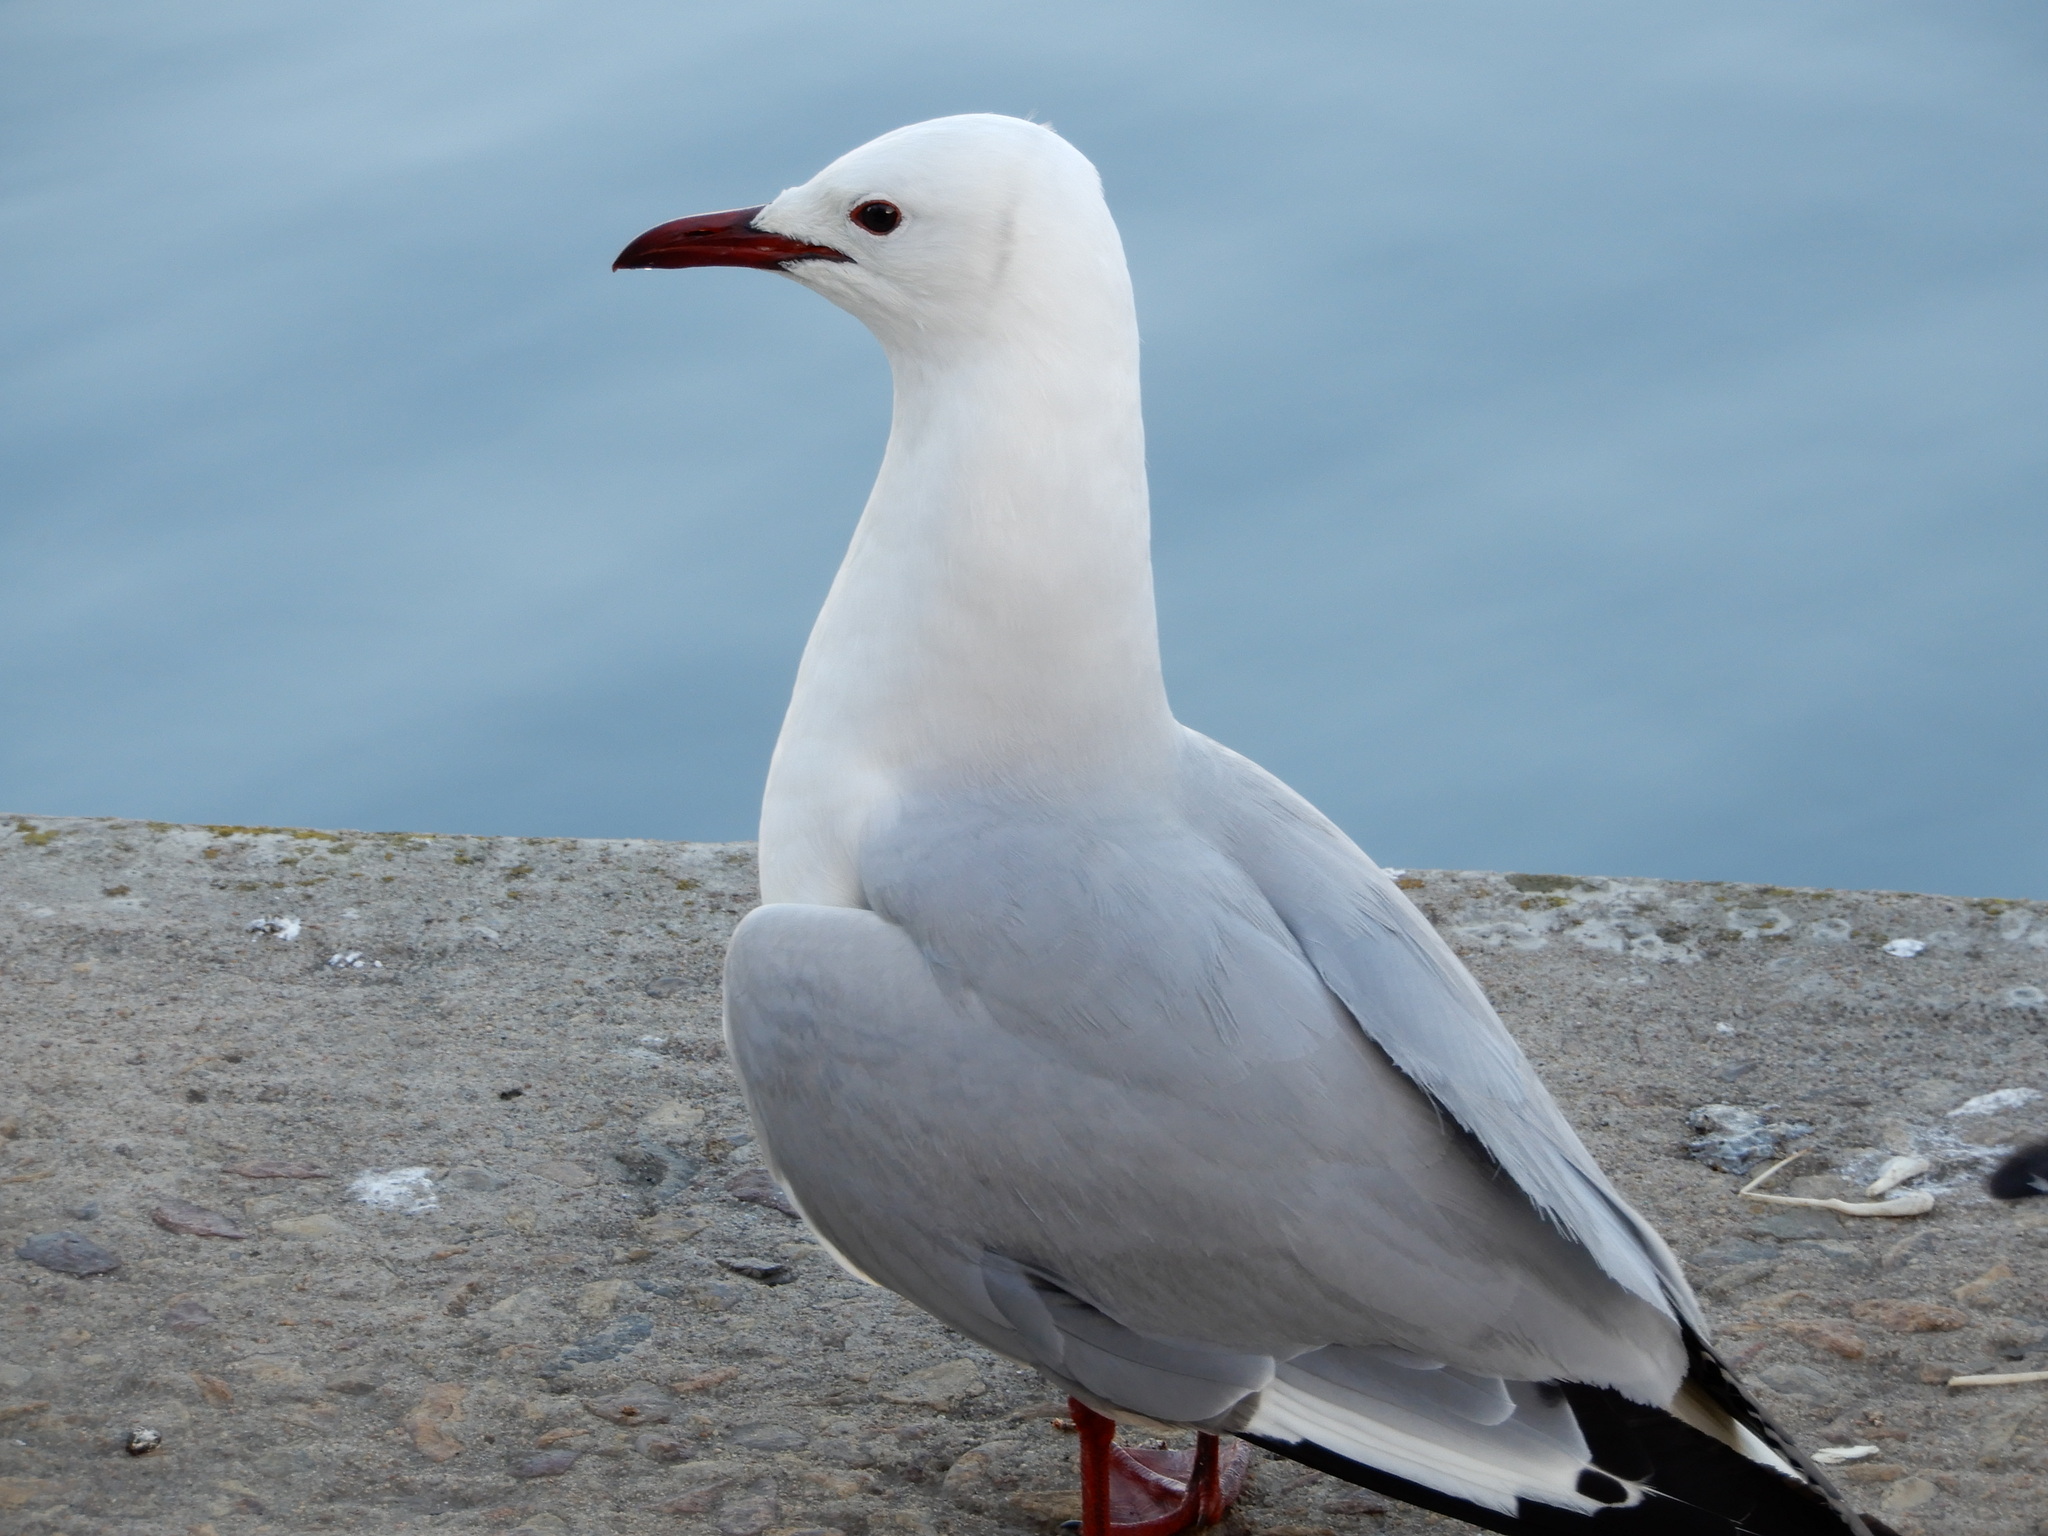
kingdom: Animalia
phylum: Chordata
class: Aves
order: Charadriiformes
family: Laridae
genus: Chroicocephalus
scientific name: Chroicocephalus hartlaubii
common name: Hartlaub's gull
